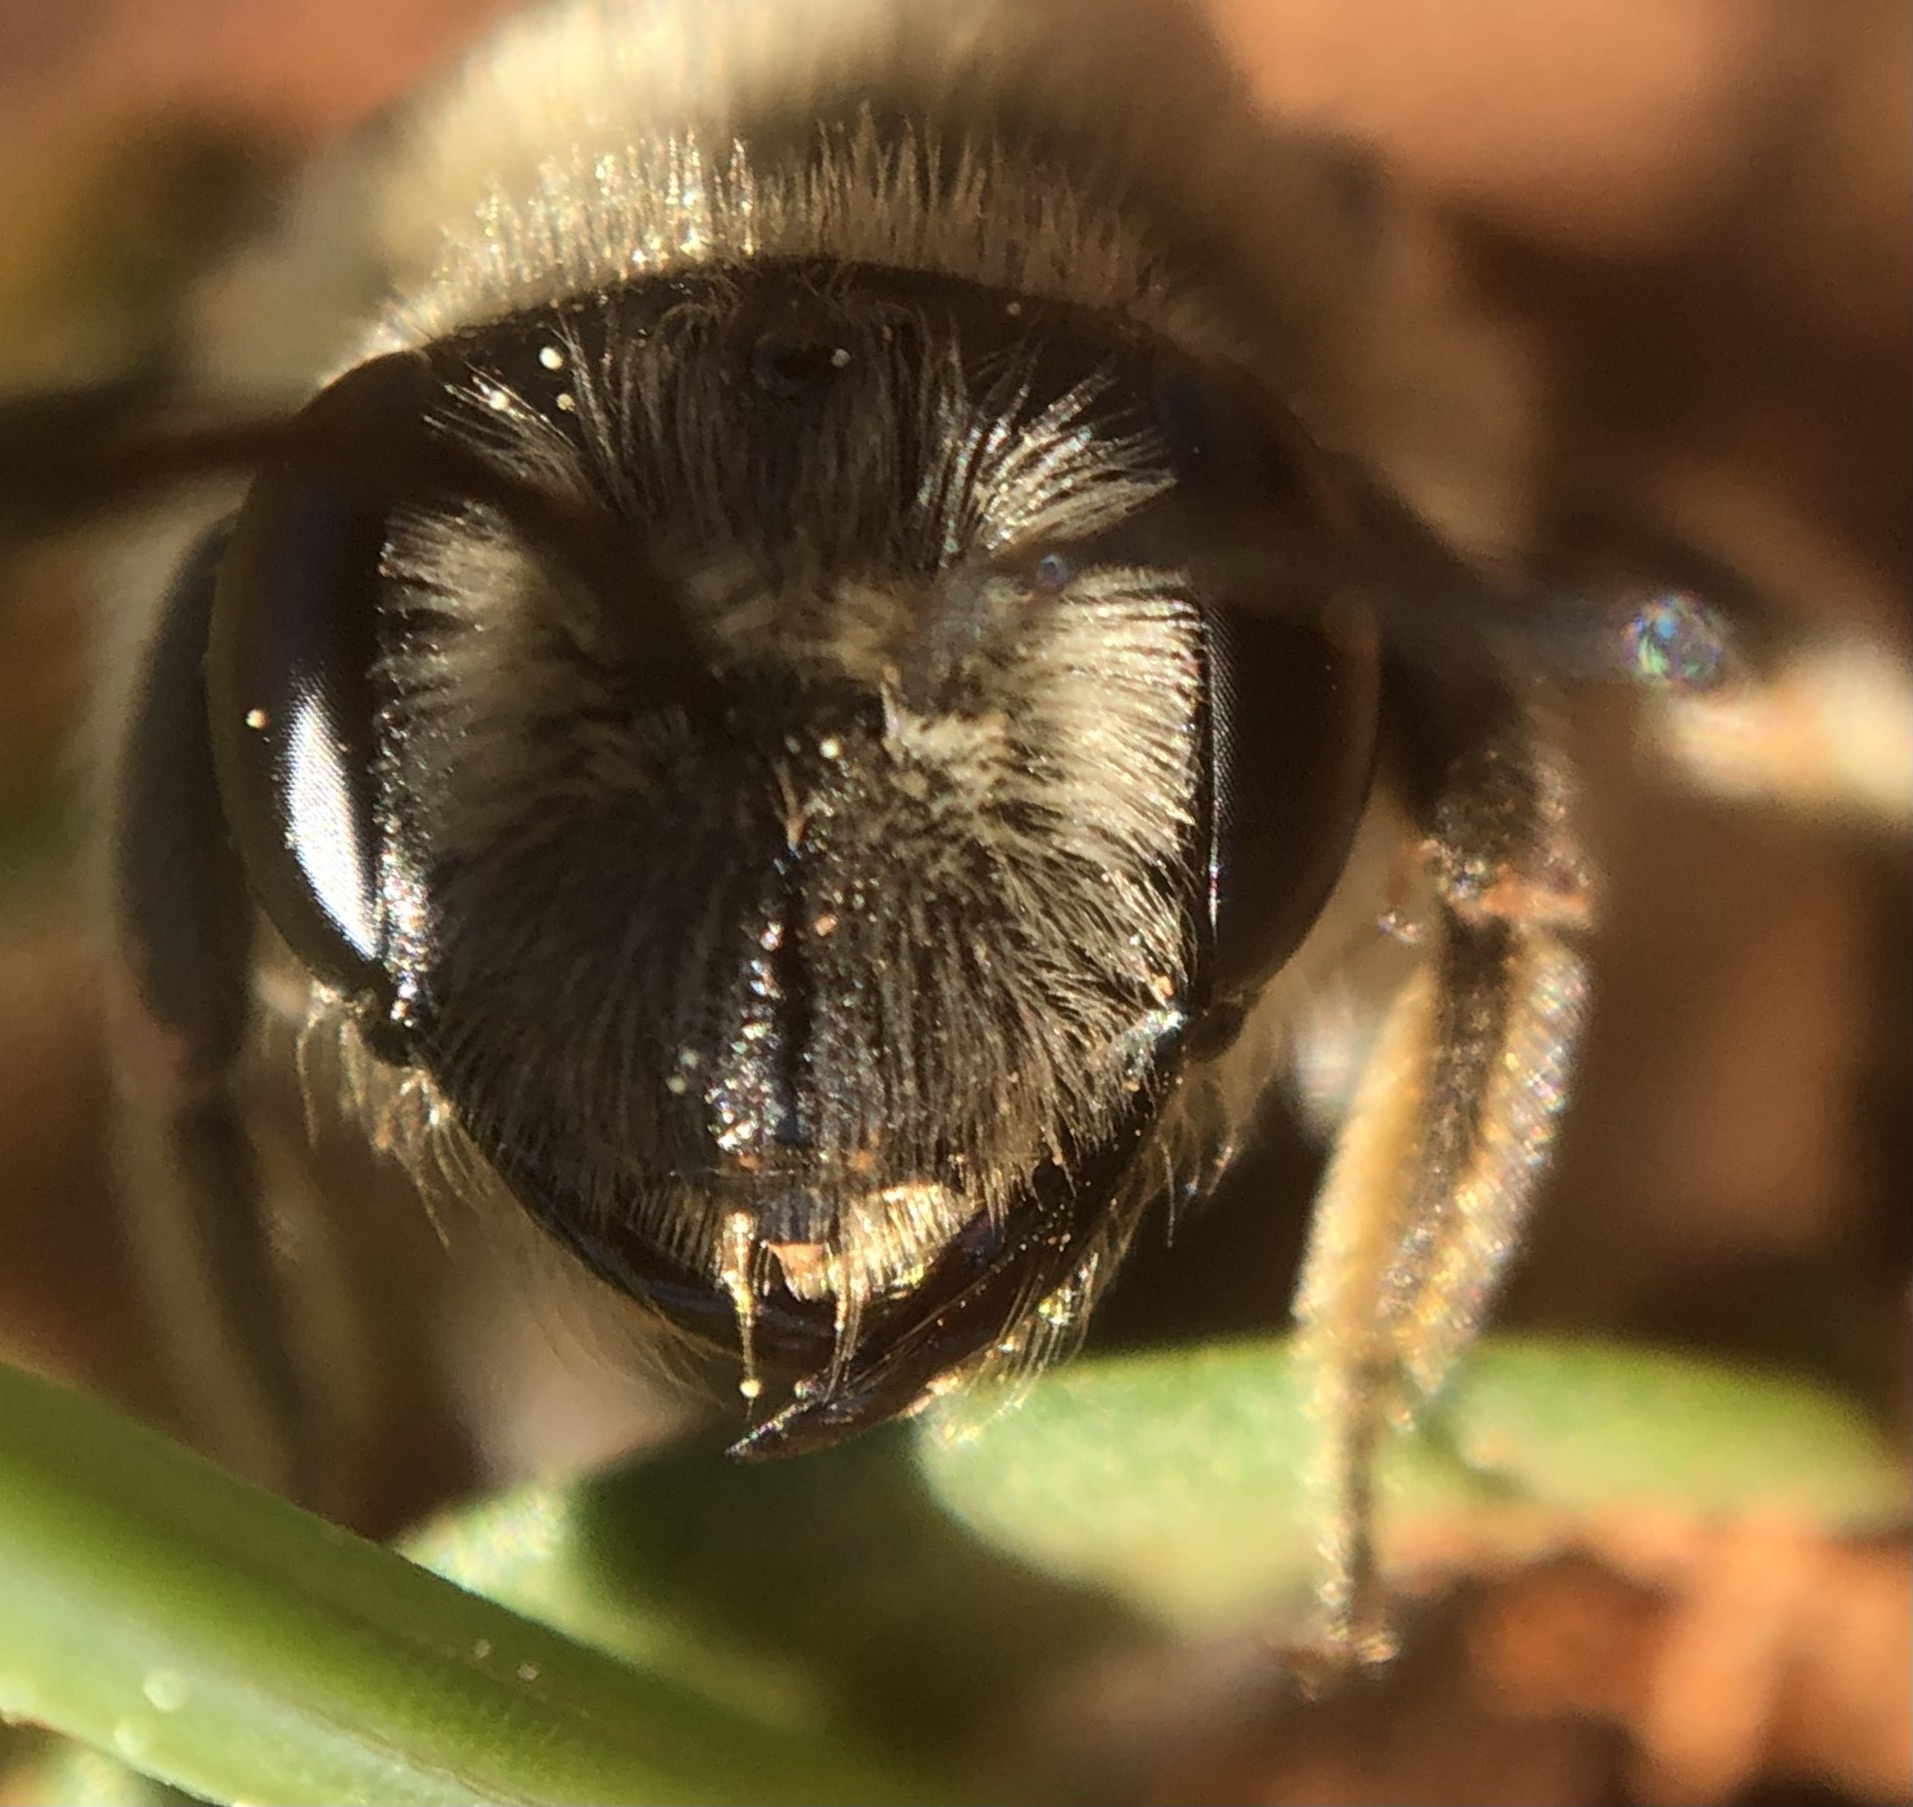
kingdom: Animalia
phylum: Arthropoda
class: Insecta
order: Hymenoptera
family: Andrenidae
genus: Andrena
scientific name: Andrena barbara
